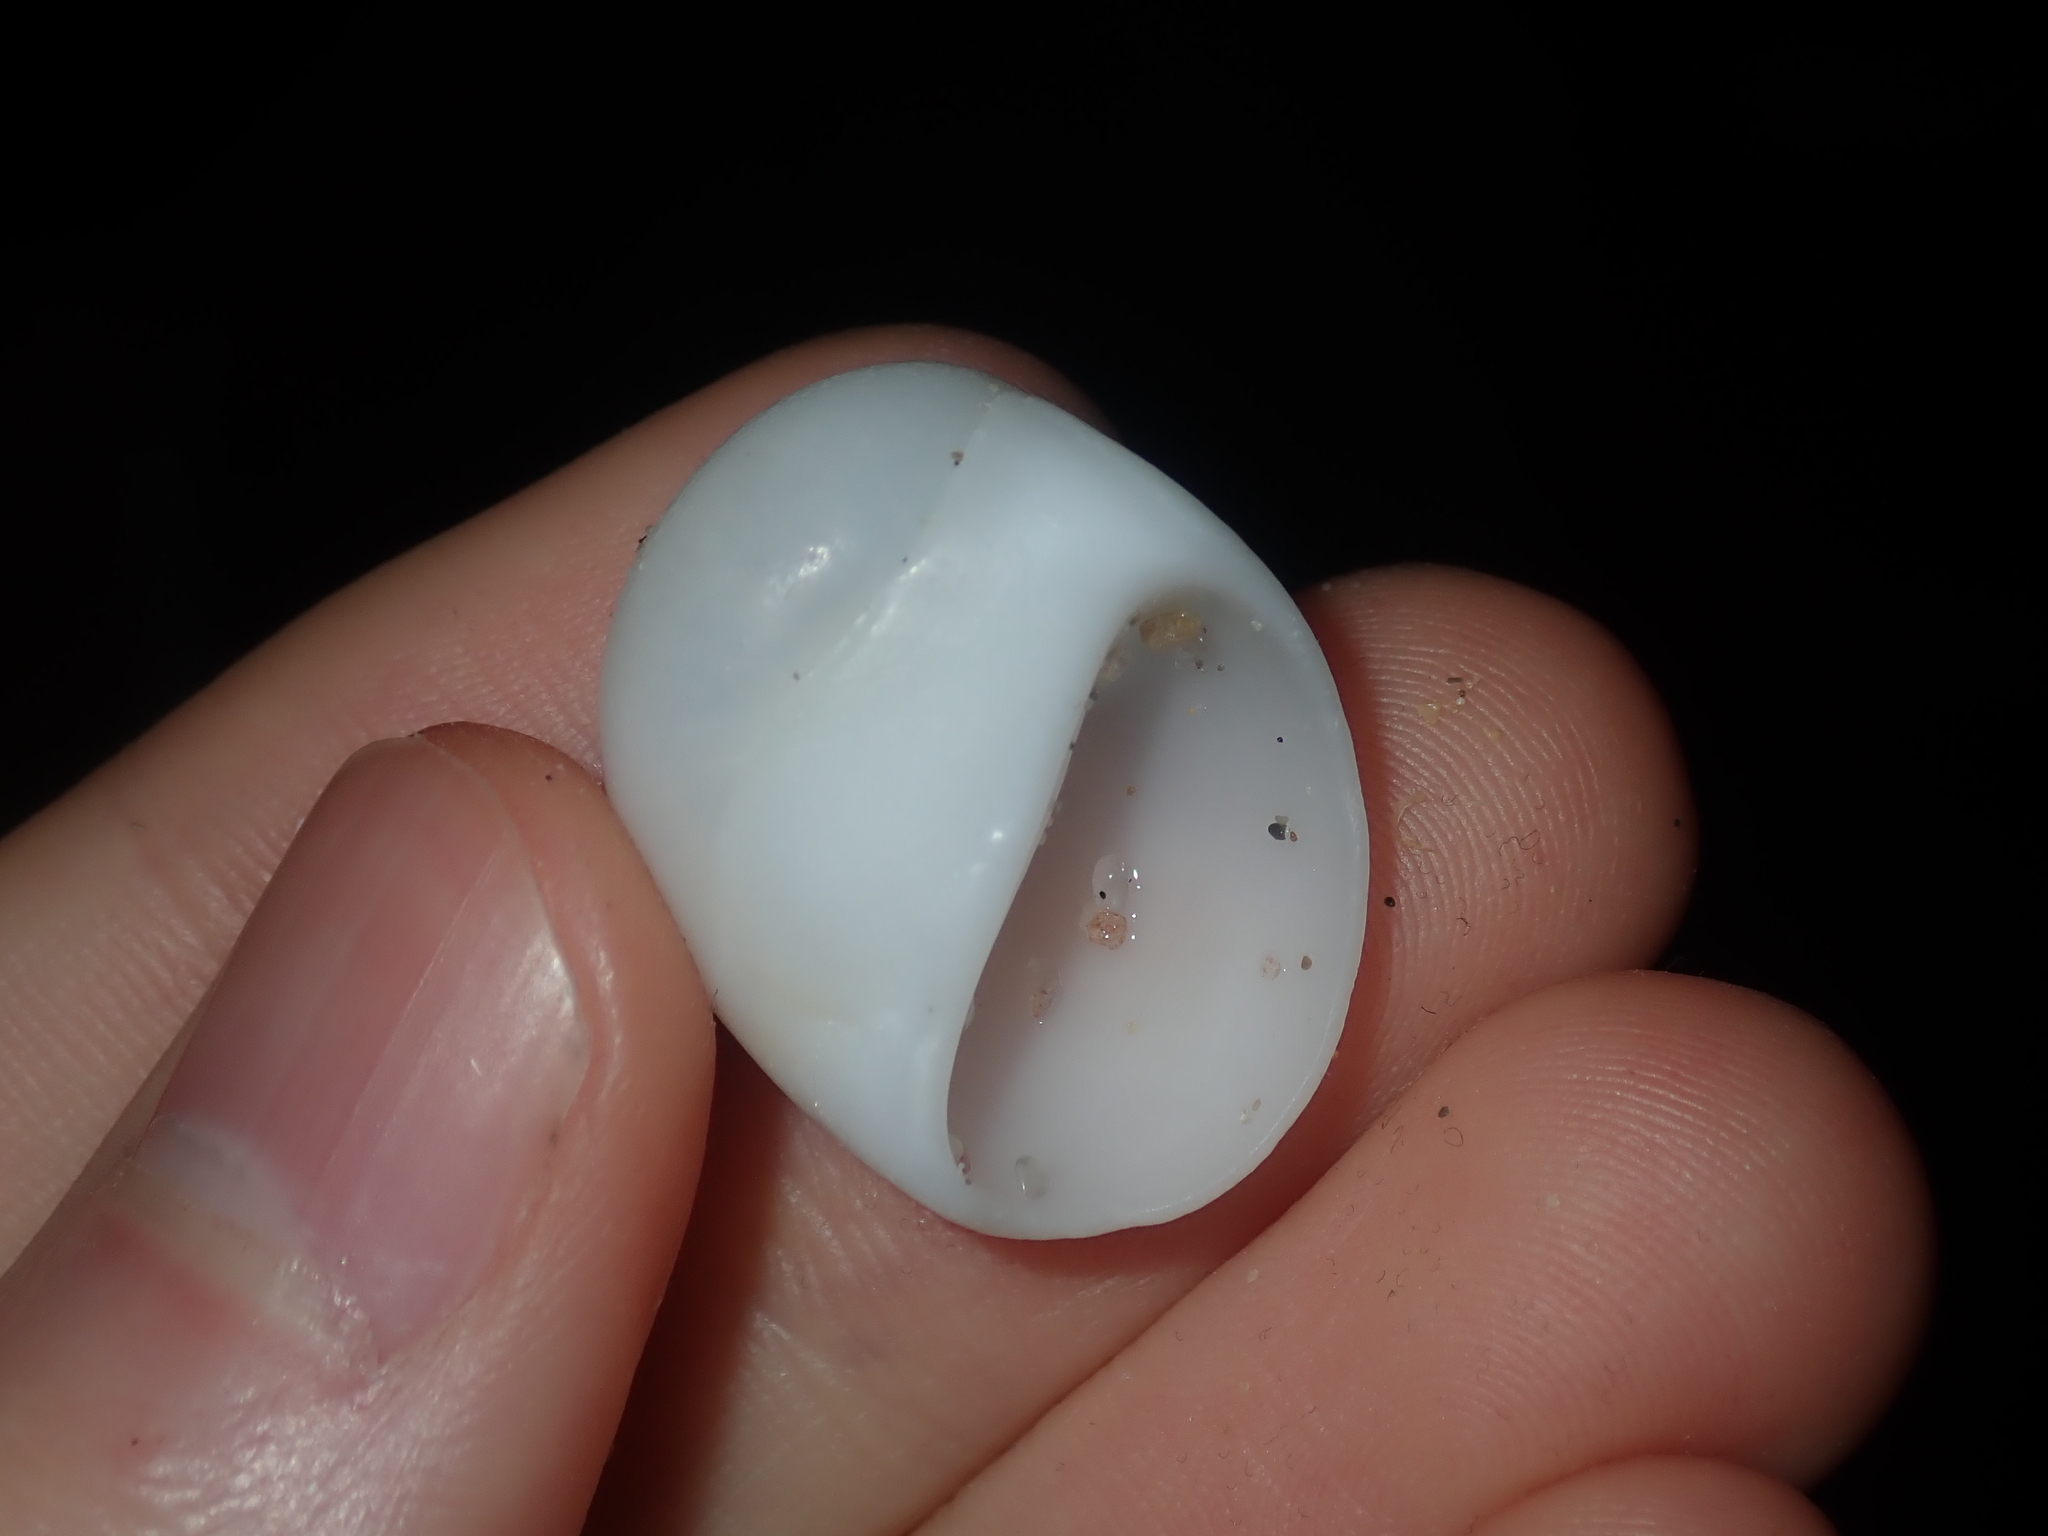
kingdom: Animalia
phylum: Mollusca
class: Gastropoda
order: Littorinimorpha
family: Naticidae
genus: Polinices
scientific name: Polinices mammilla
